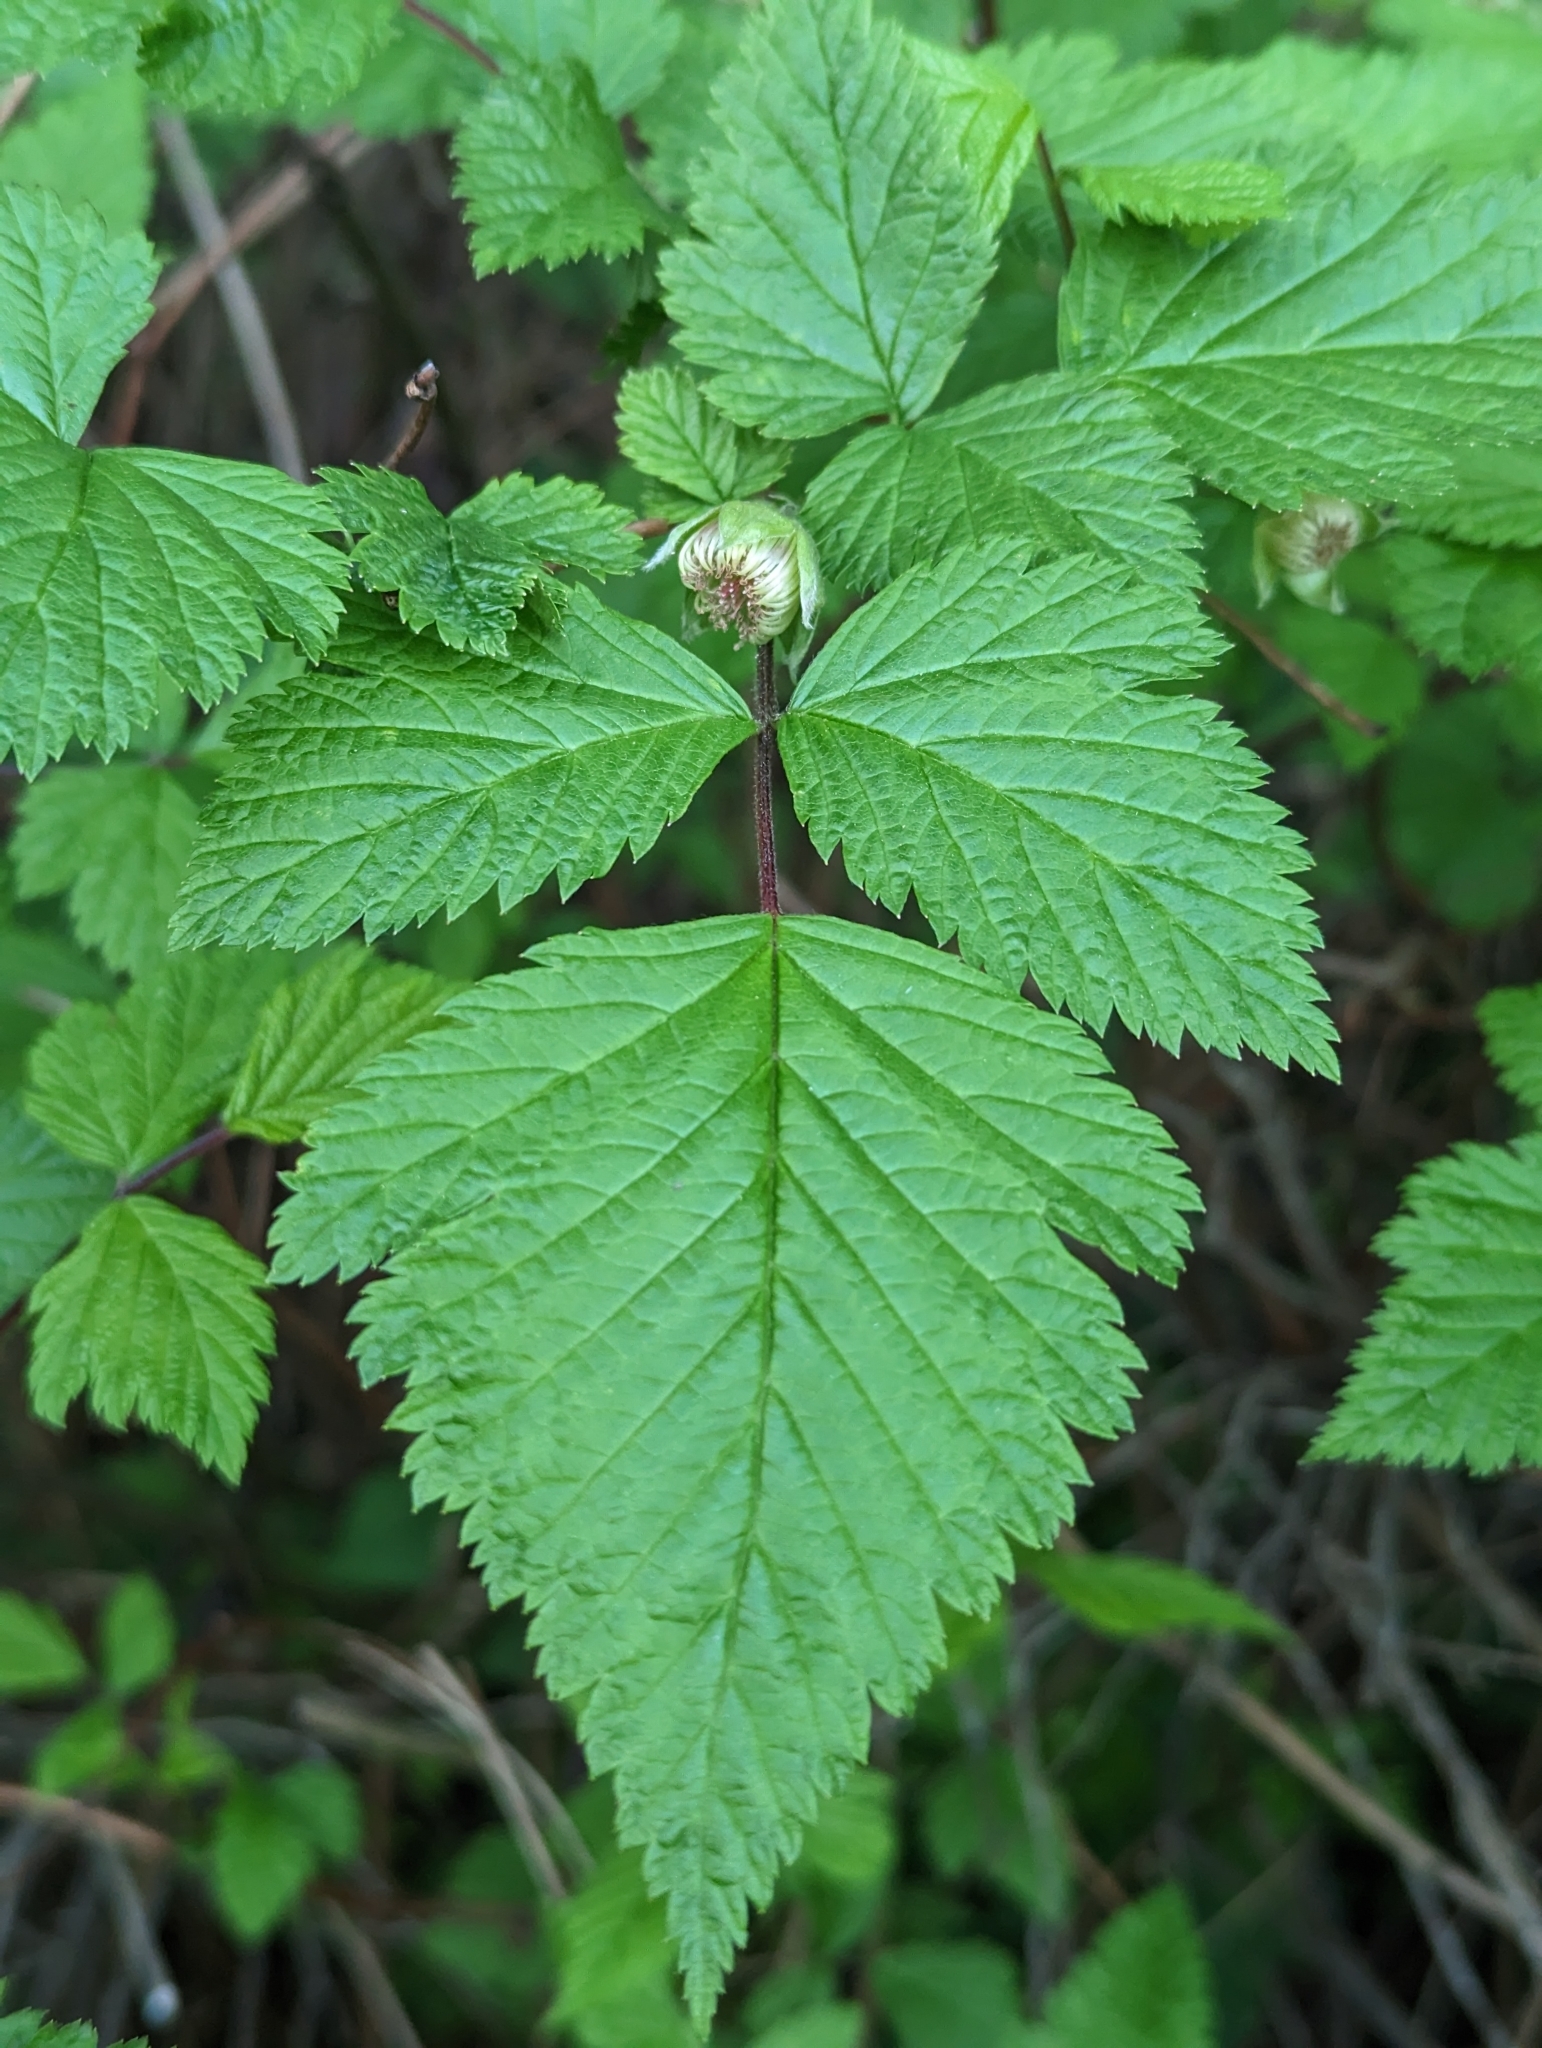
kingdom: Plantae
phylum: Tracheophyta
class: Magnoliopsida
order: Rosales
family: Rosaceae
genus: Rubus
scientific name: Rubus spectabilis
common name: Salmonberry
